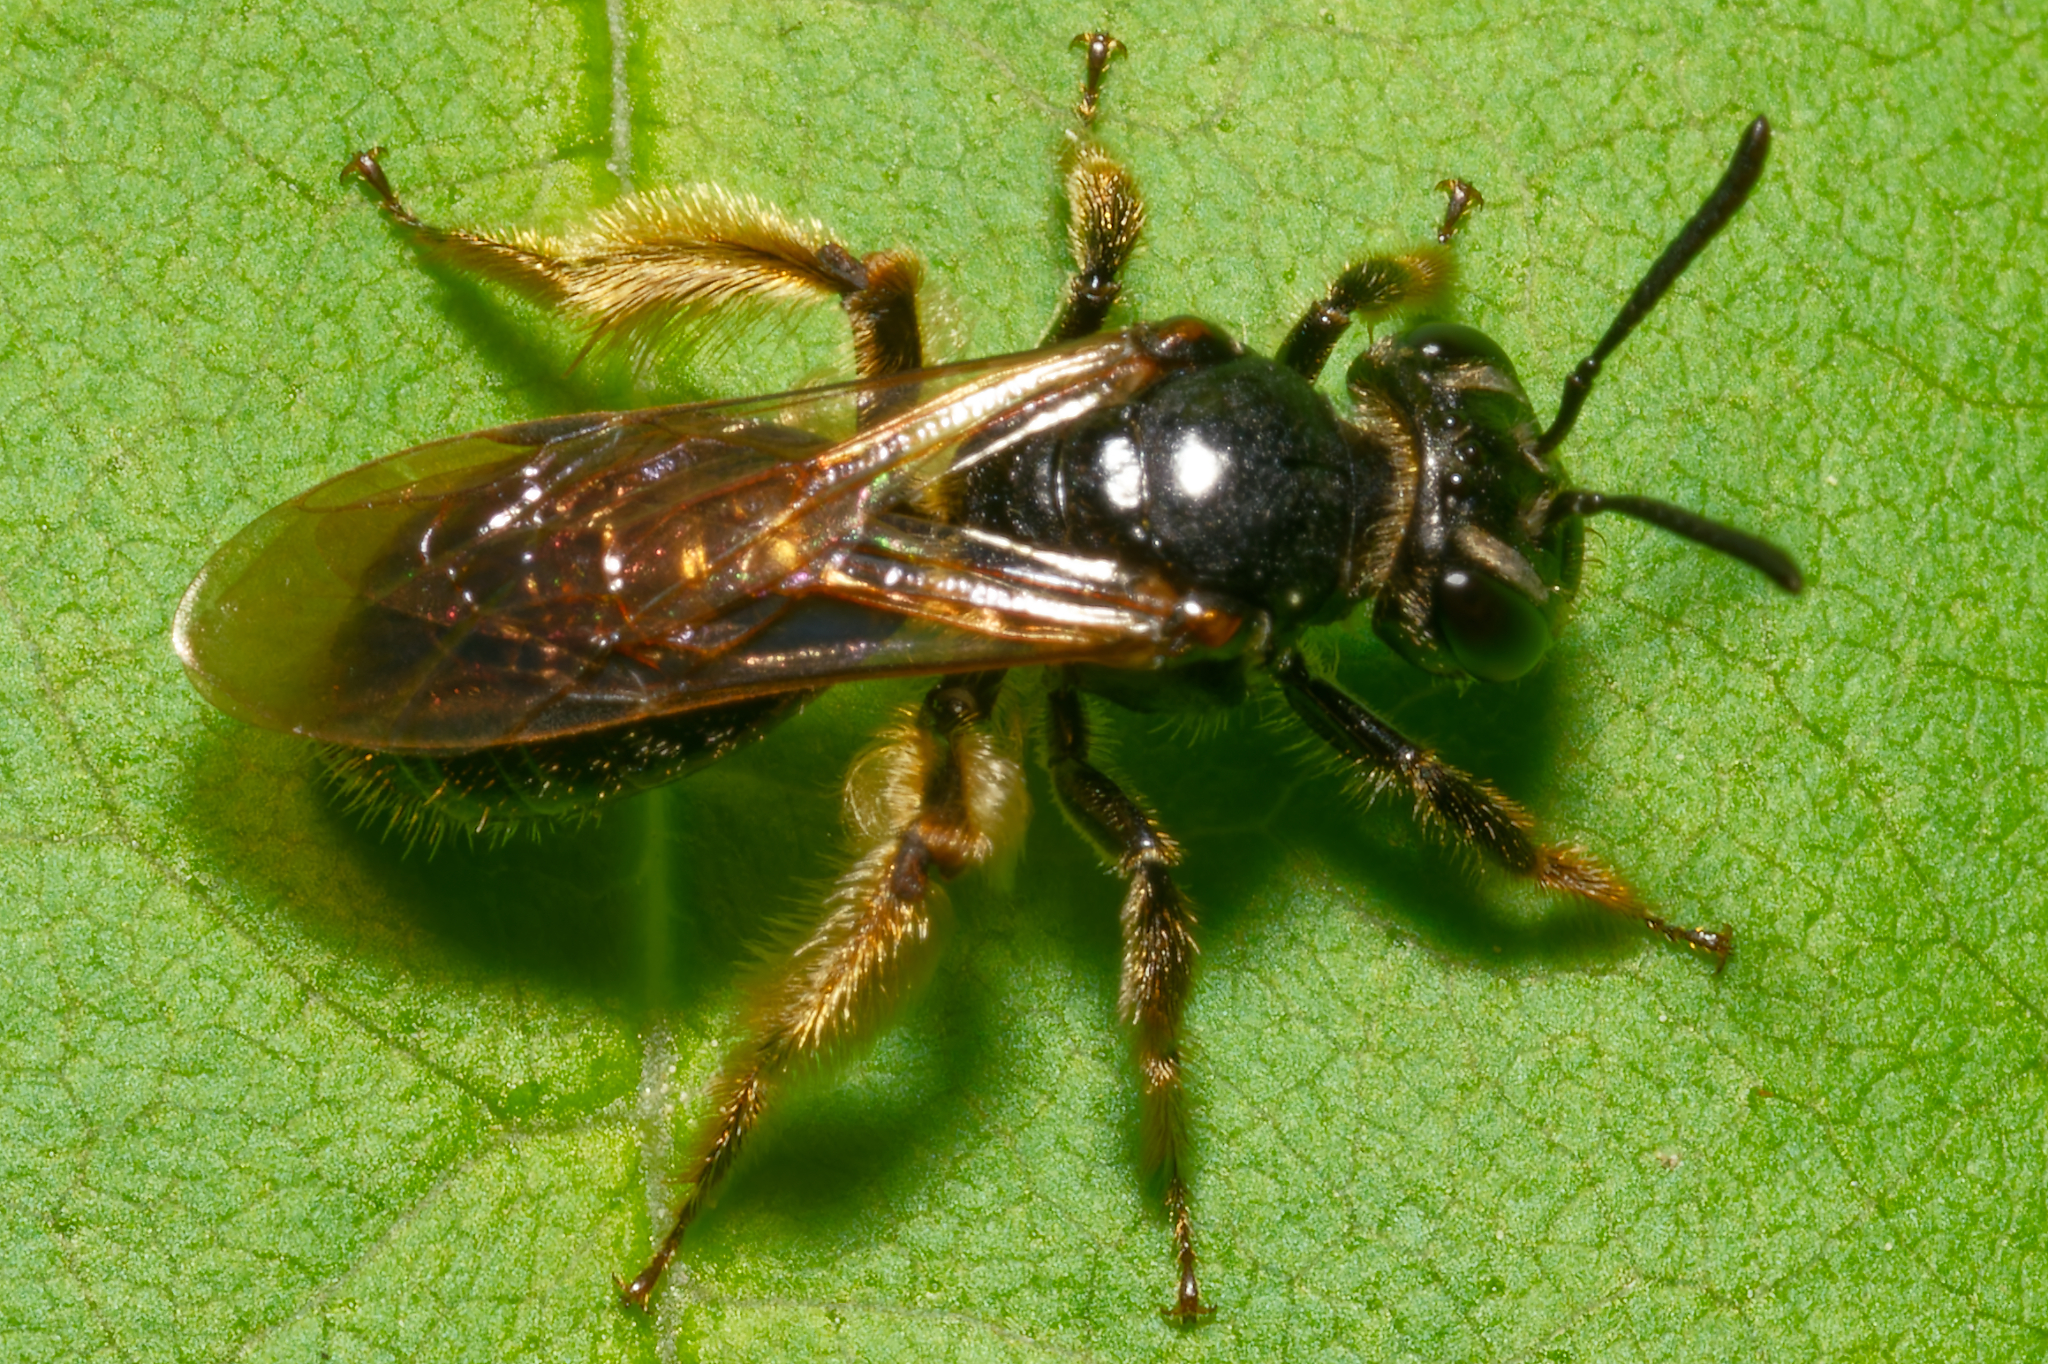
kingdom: Animalia
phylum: Arthropoda
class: Insecta
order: Hymenoptera
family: Andrenidae
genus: Andrena
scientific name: Andrena integra
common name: Short-haired dogwood mining bee
